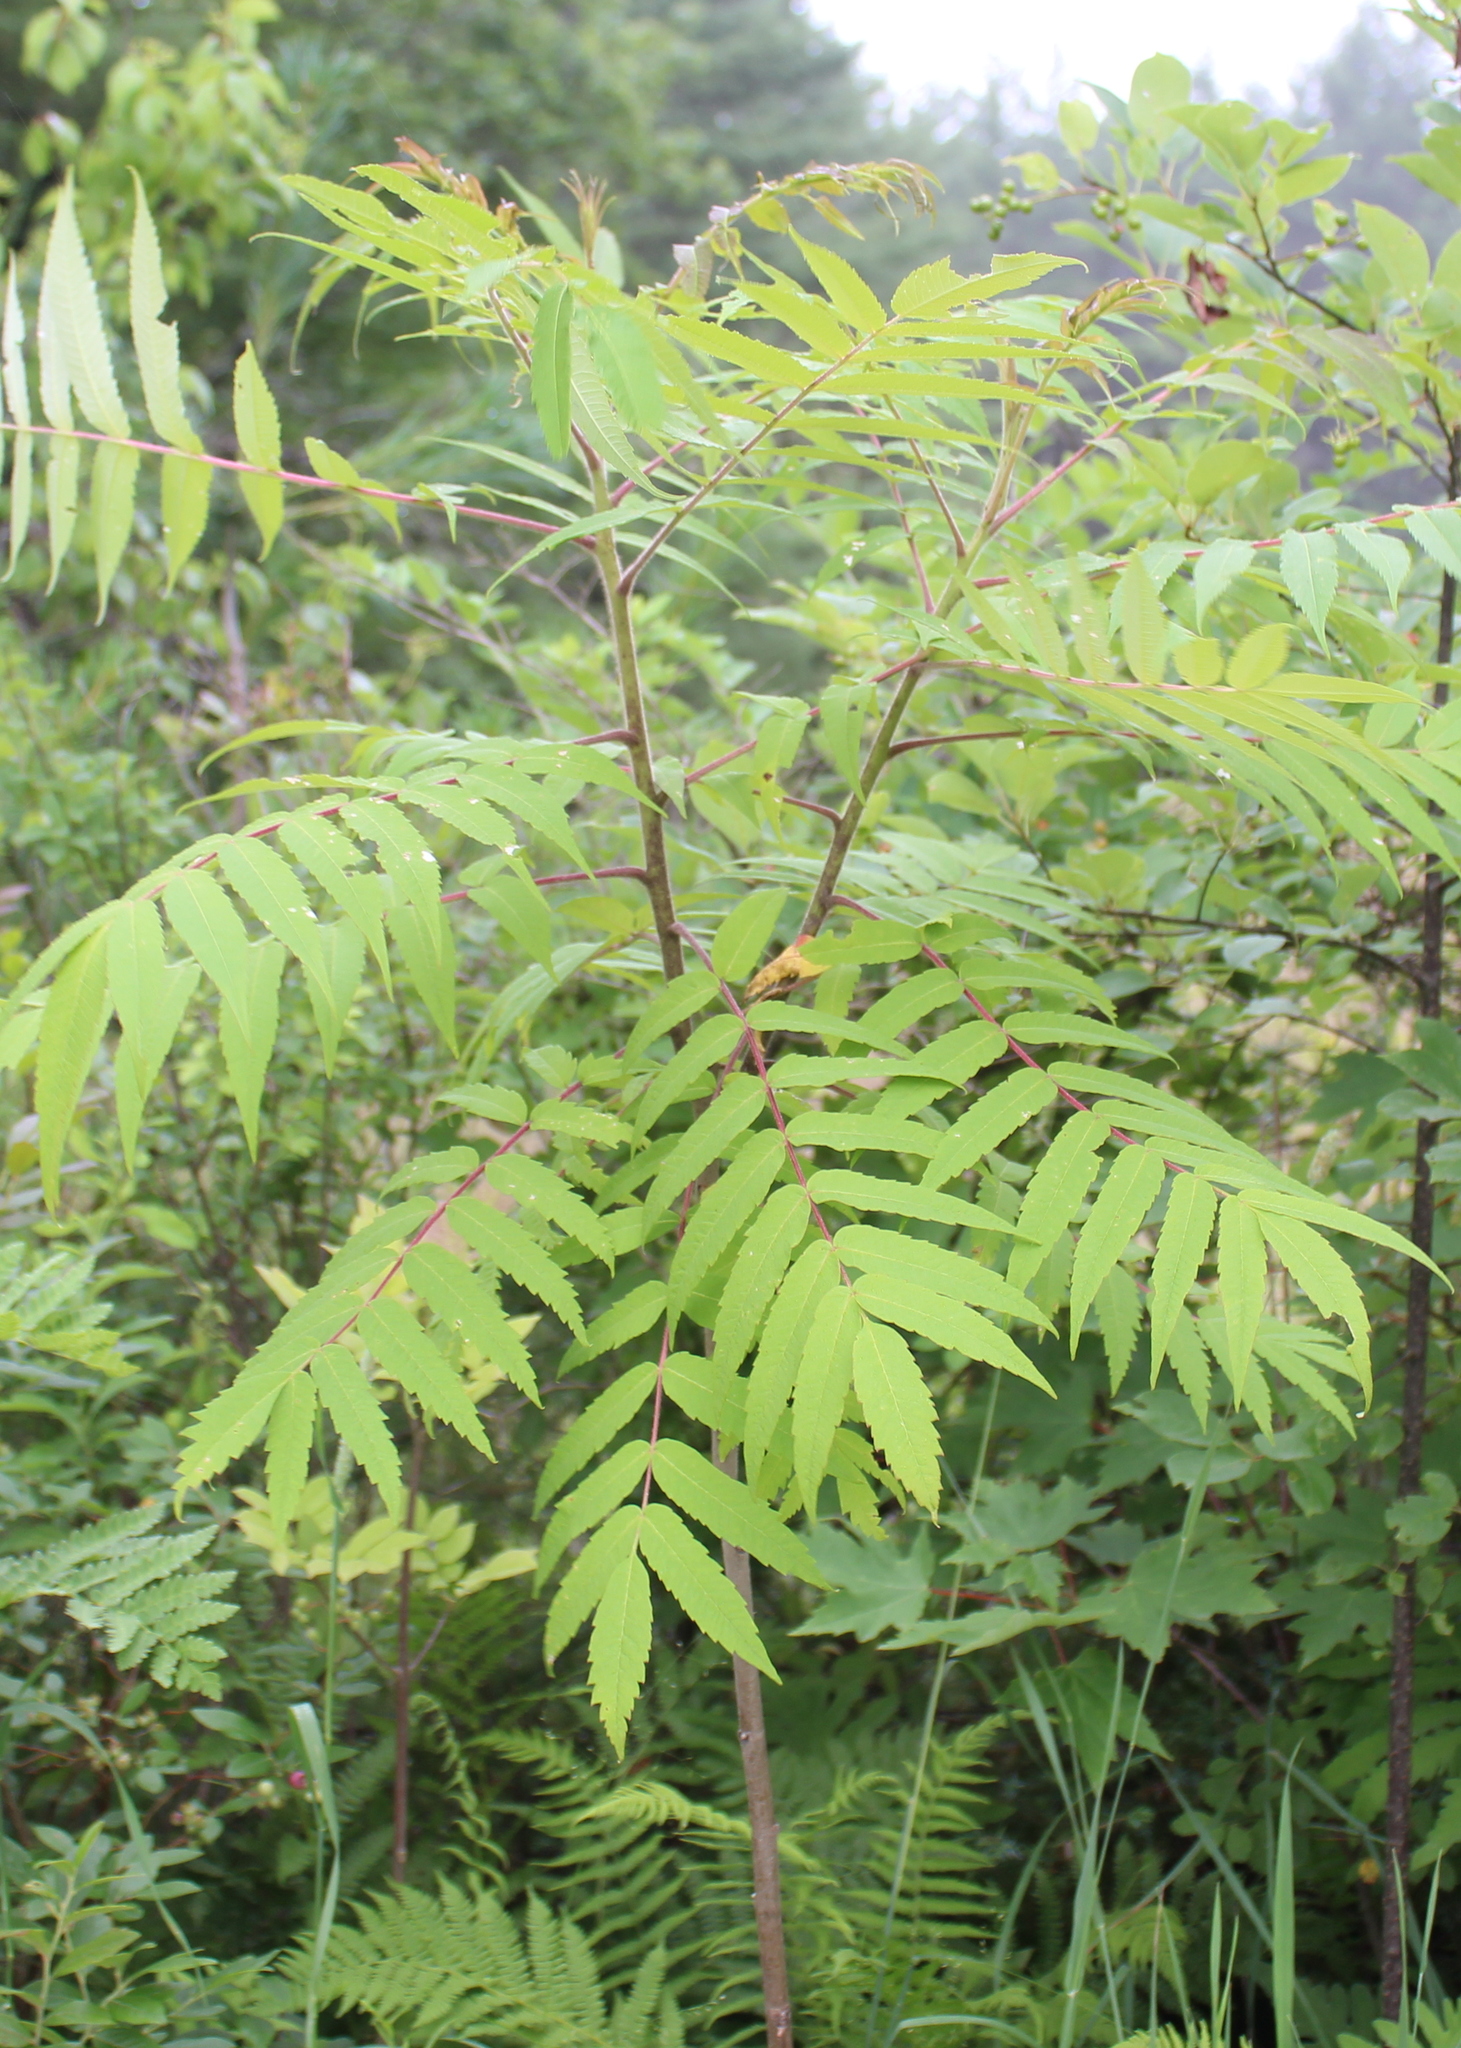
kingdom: Plantae
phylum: Tracheophyta
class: Magnoliopsida
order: Sapindales
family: Anacardiaceae
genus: Rhus
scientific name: Rhus typhina
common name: Staghorn sumac
